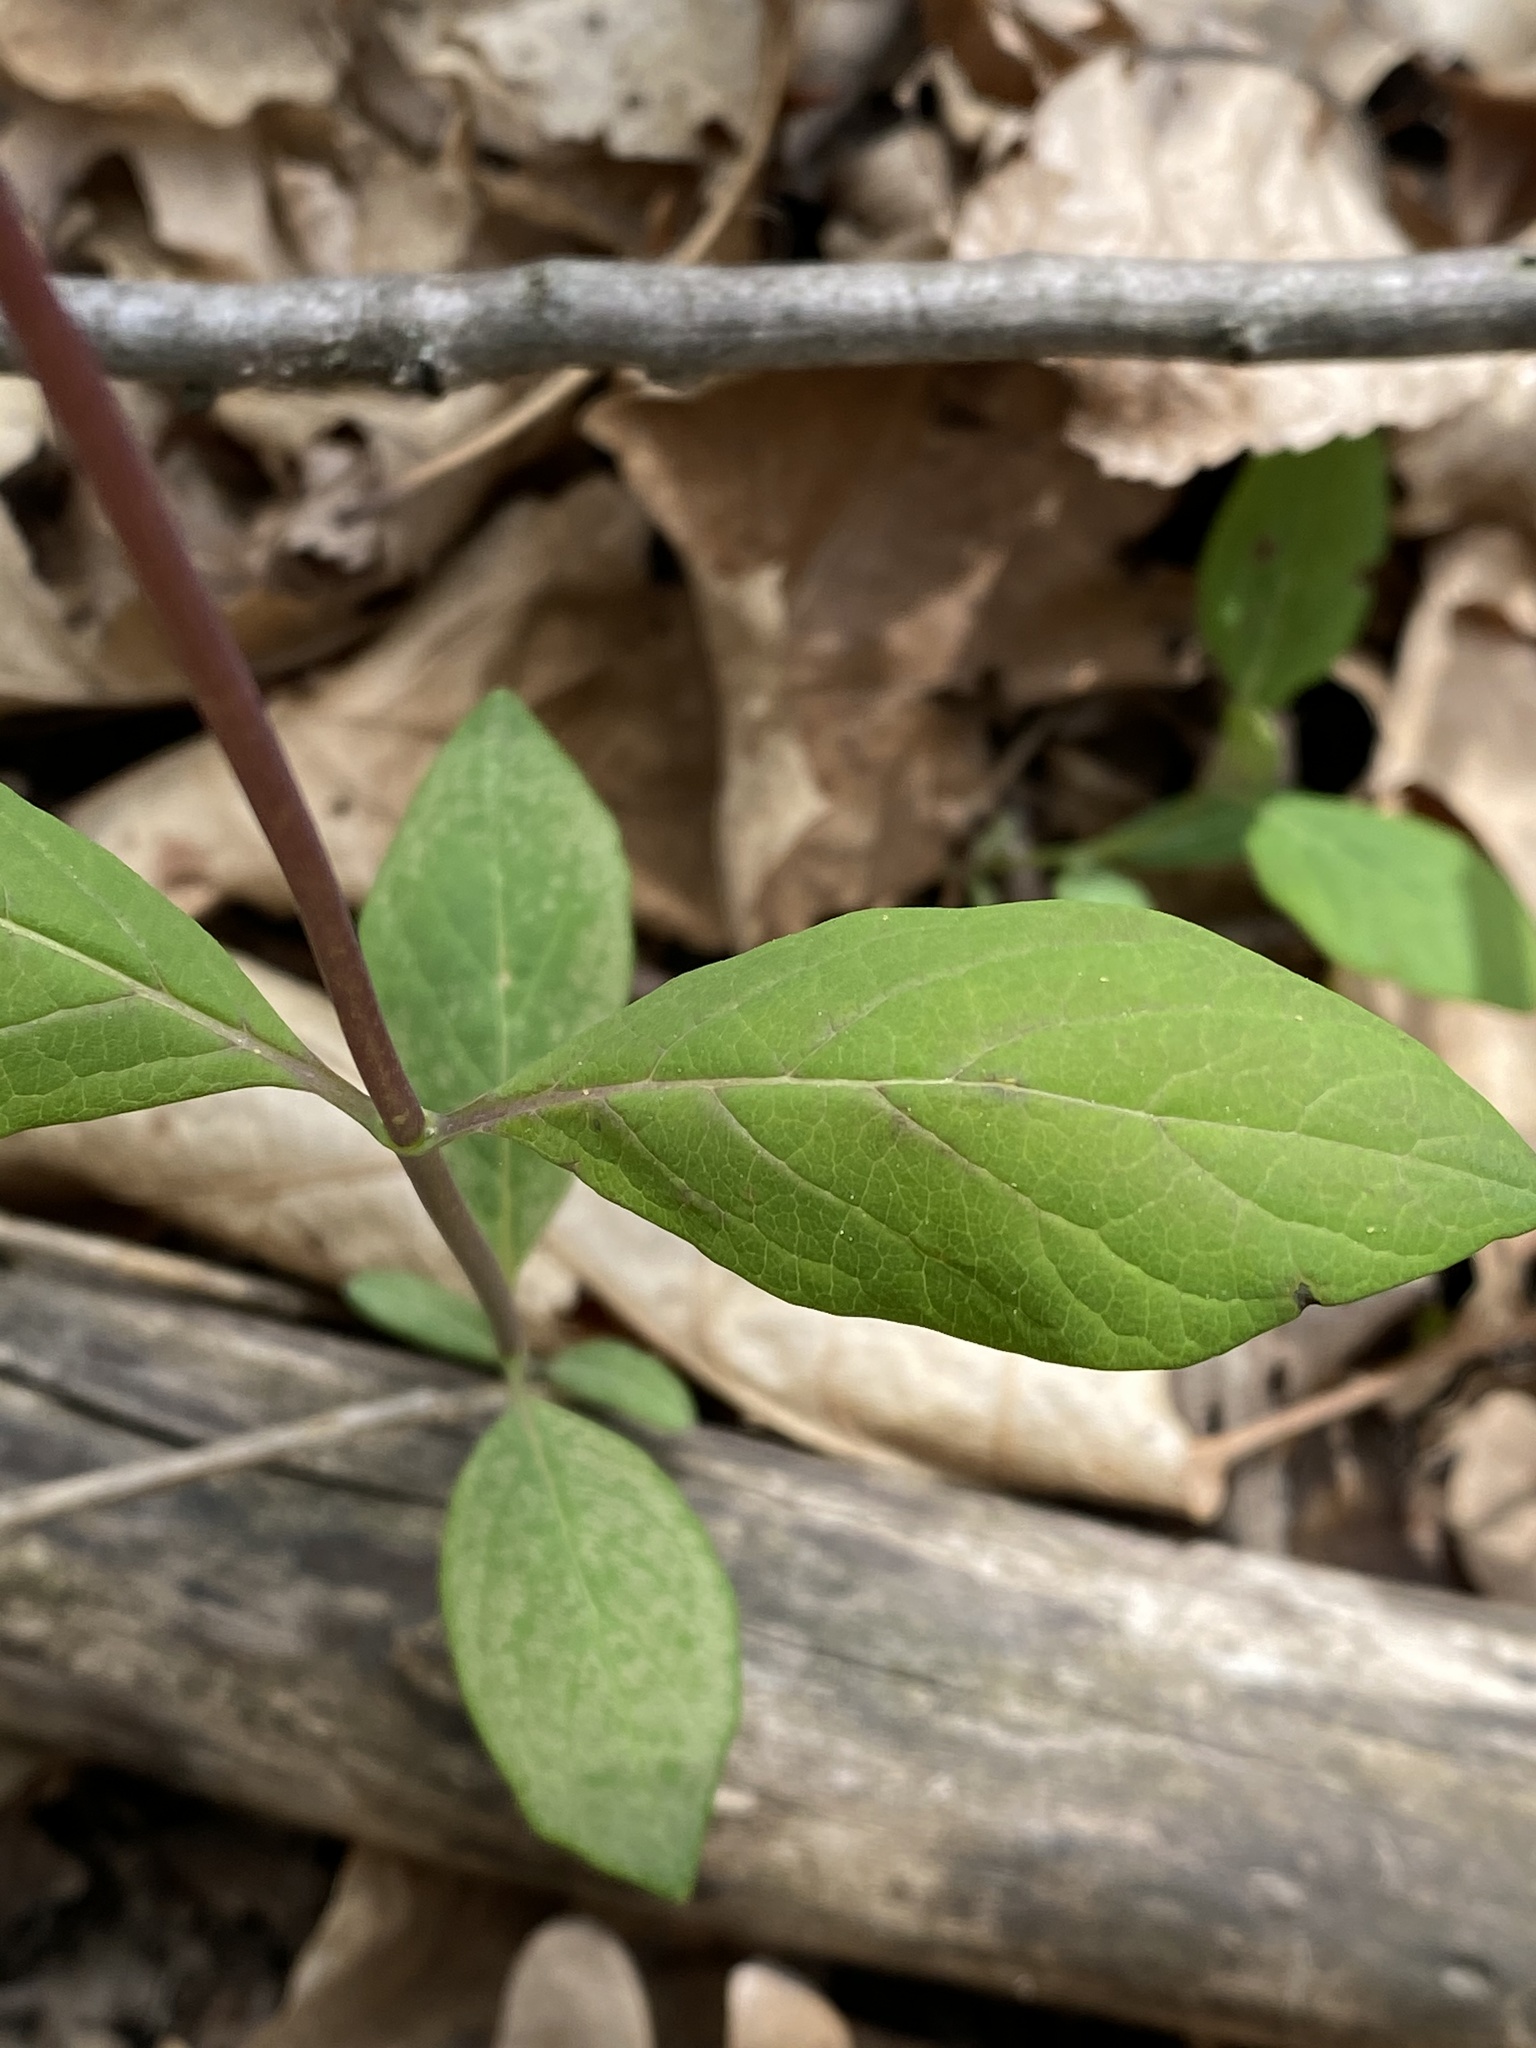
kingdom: Plantae
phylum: Tracheophyta
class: Magnoliopsida
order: Dipsacales
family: Caprifoliaceae
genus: Lonicera
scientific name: Lonicera dioica
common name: Limber honeysuckle
